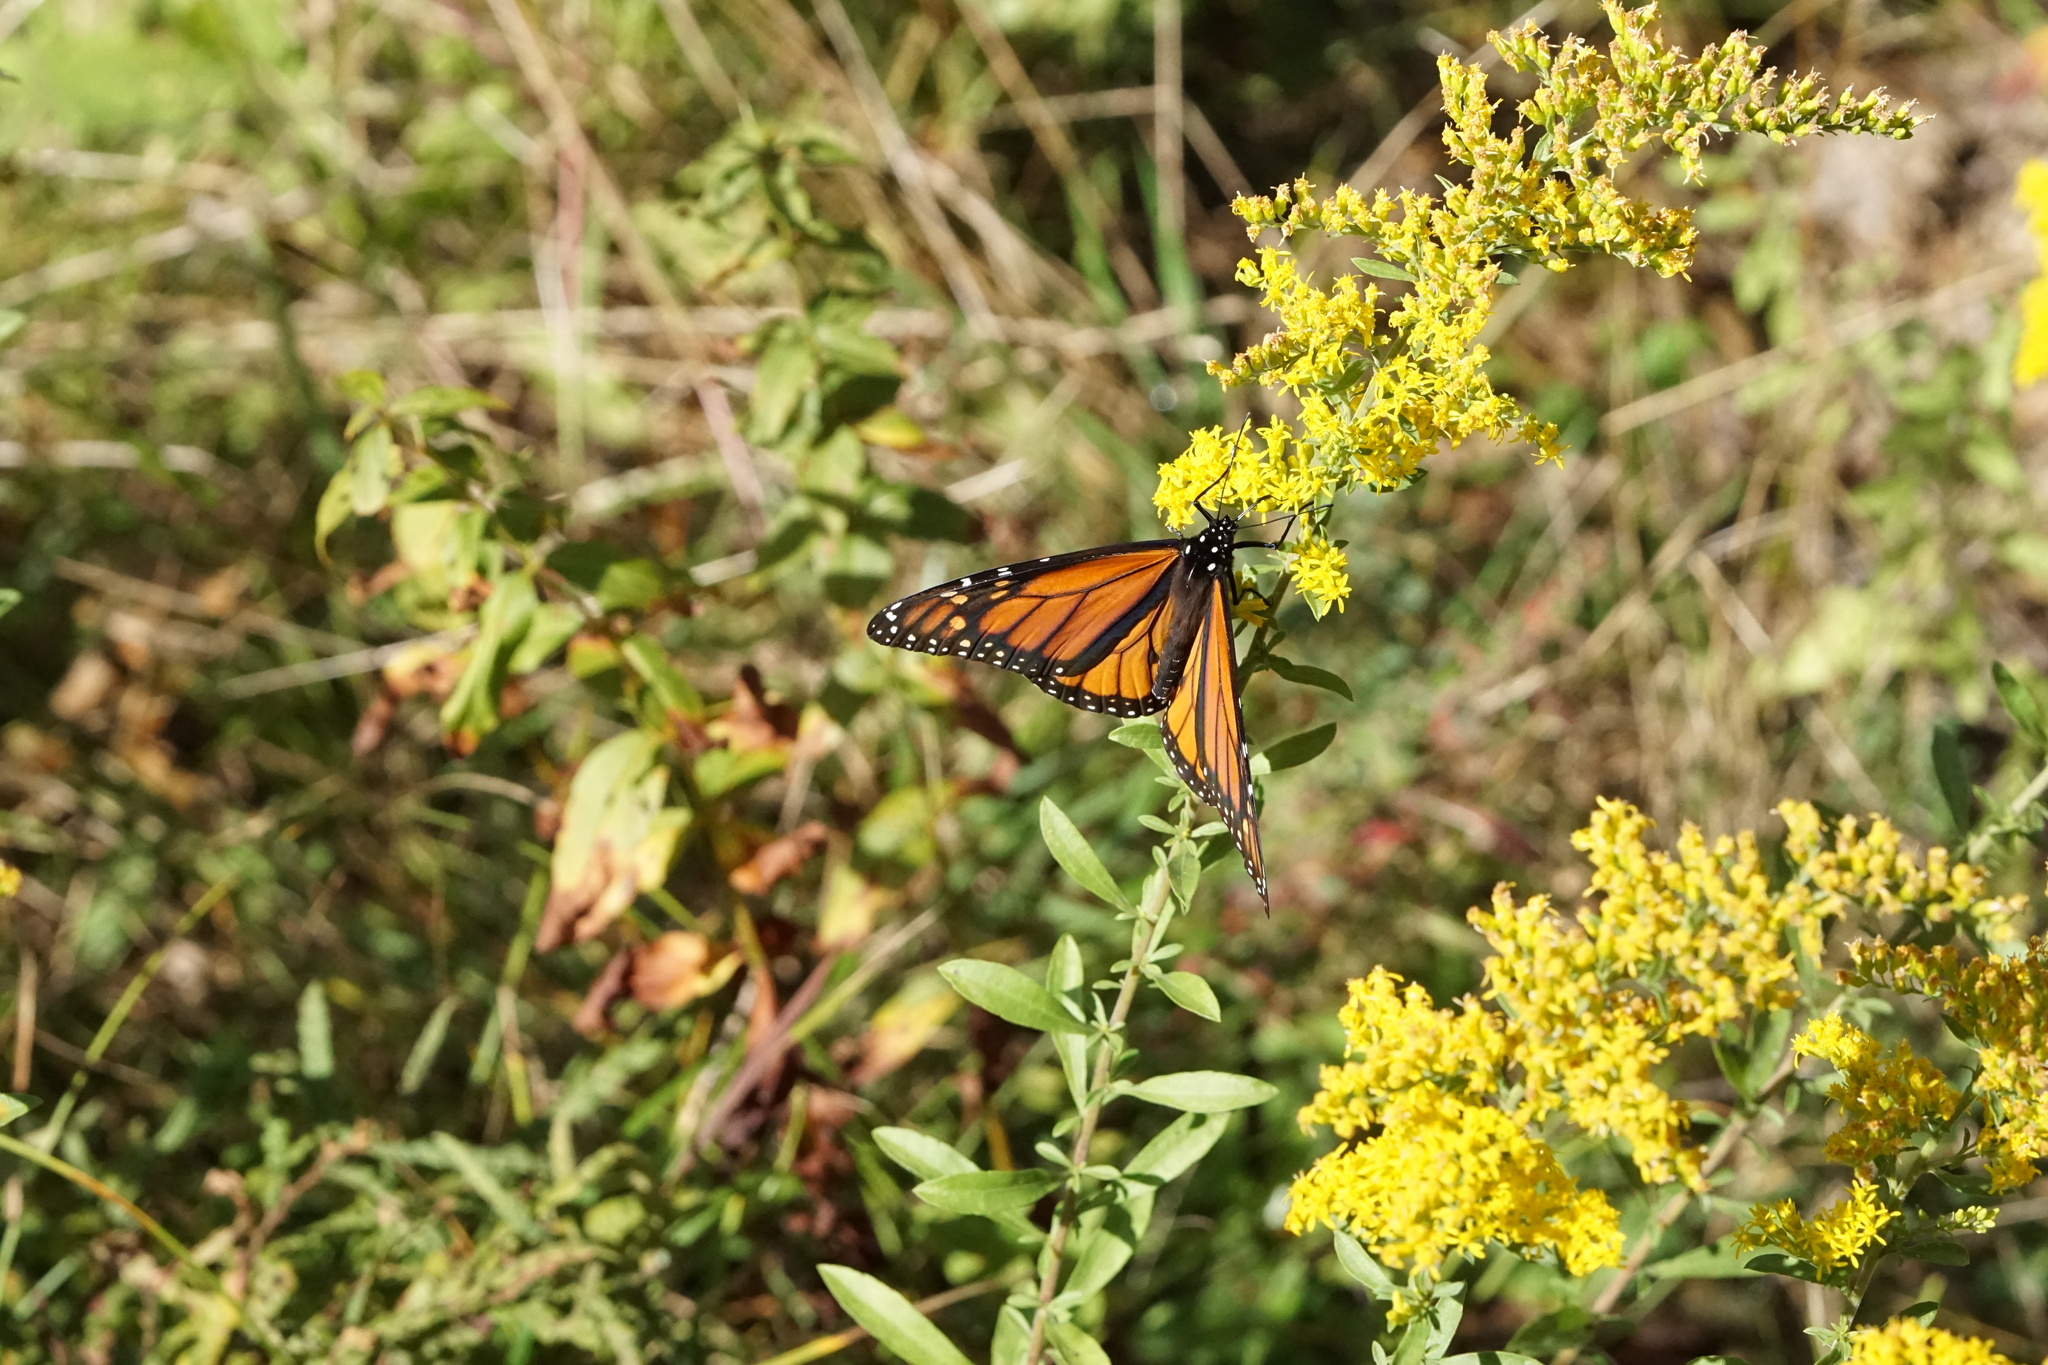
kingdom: Animalia
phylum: Arthropoda
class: Insecta
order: Lepidoptera
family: Nymphalidae
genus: Danaus
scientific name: Danaus plexippus
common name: Monarch
